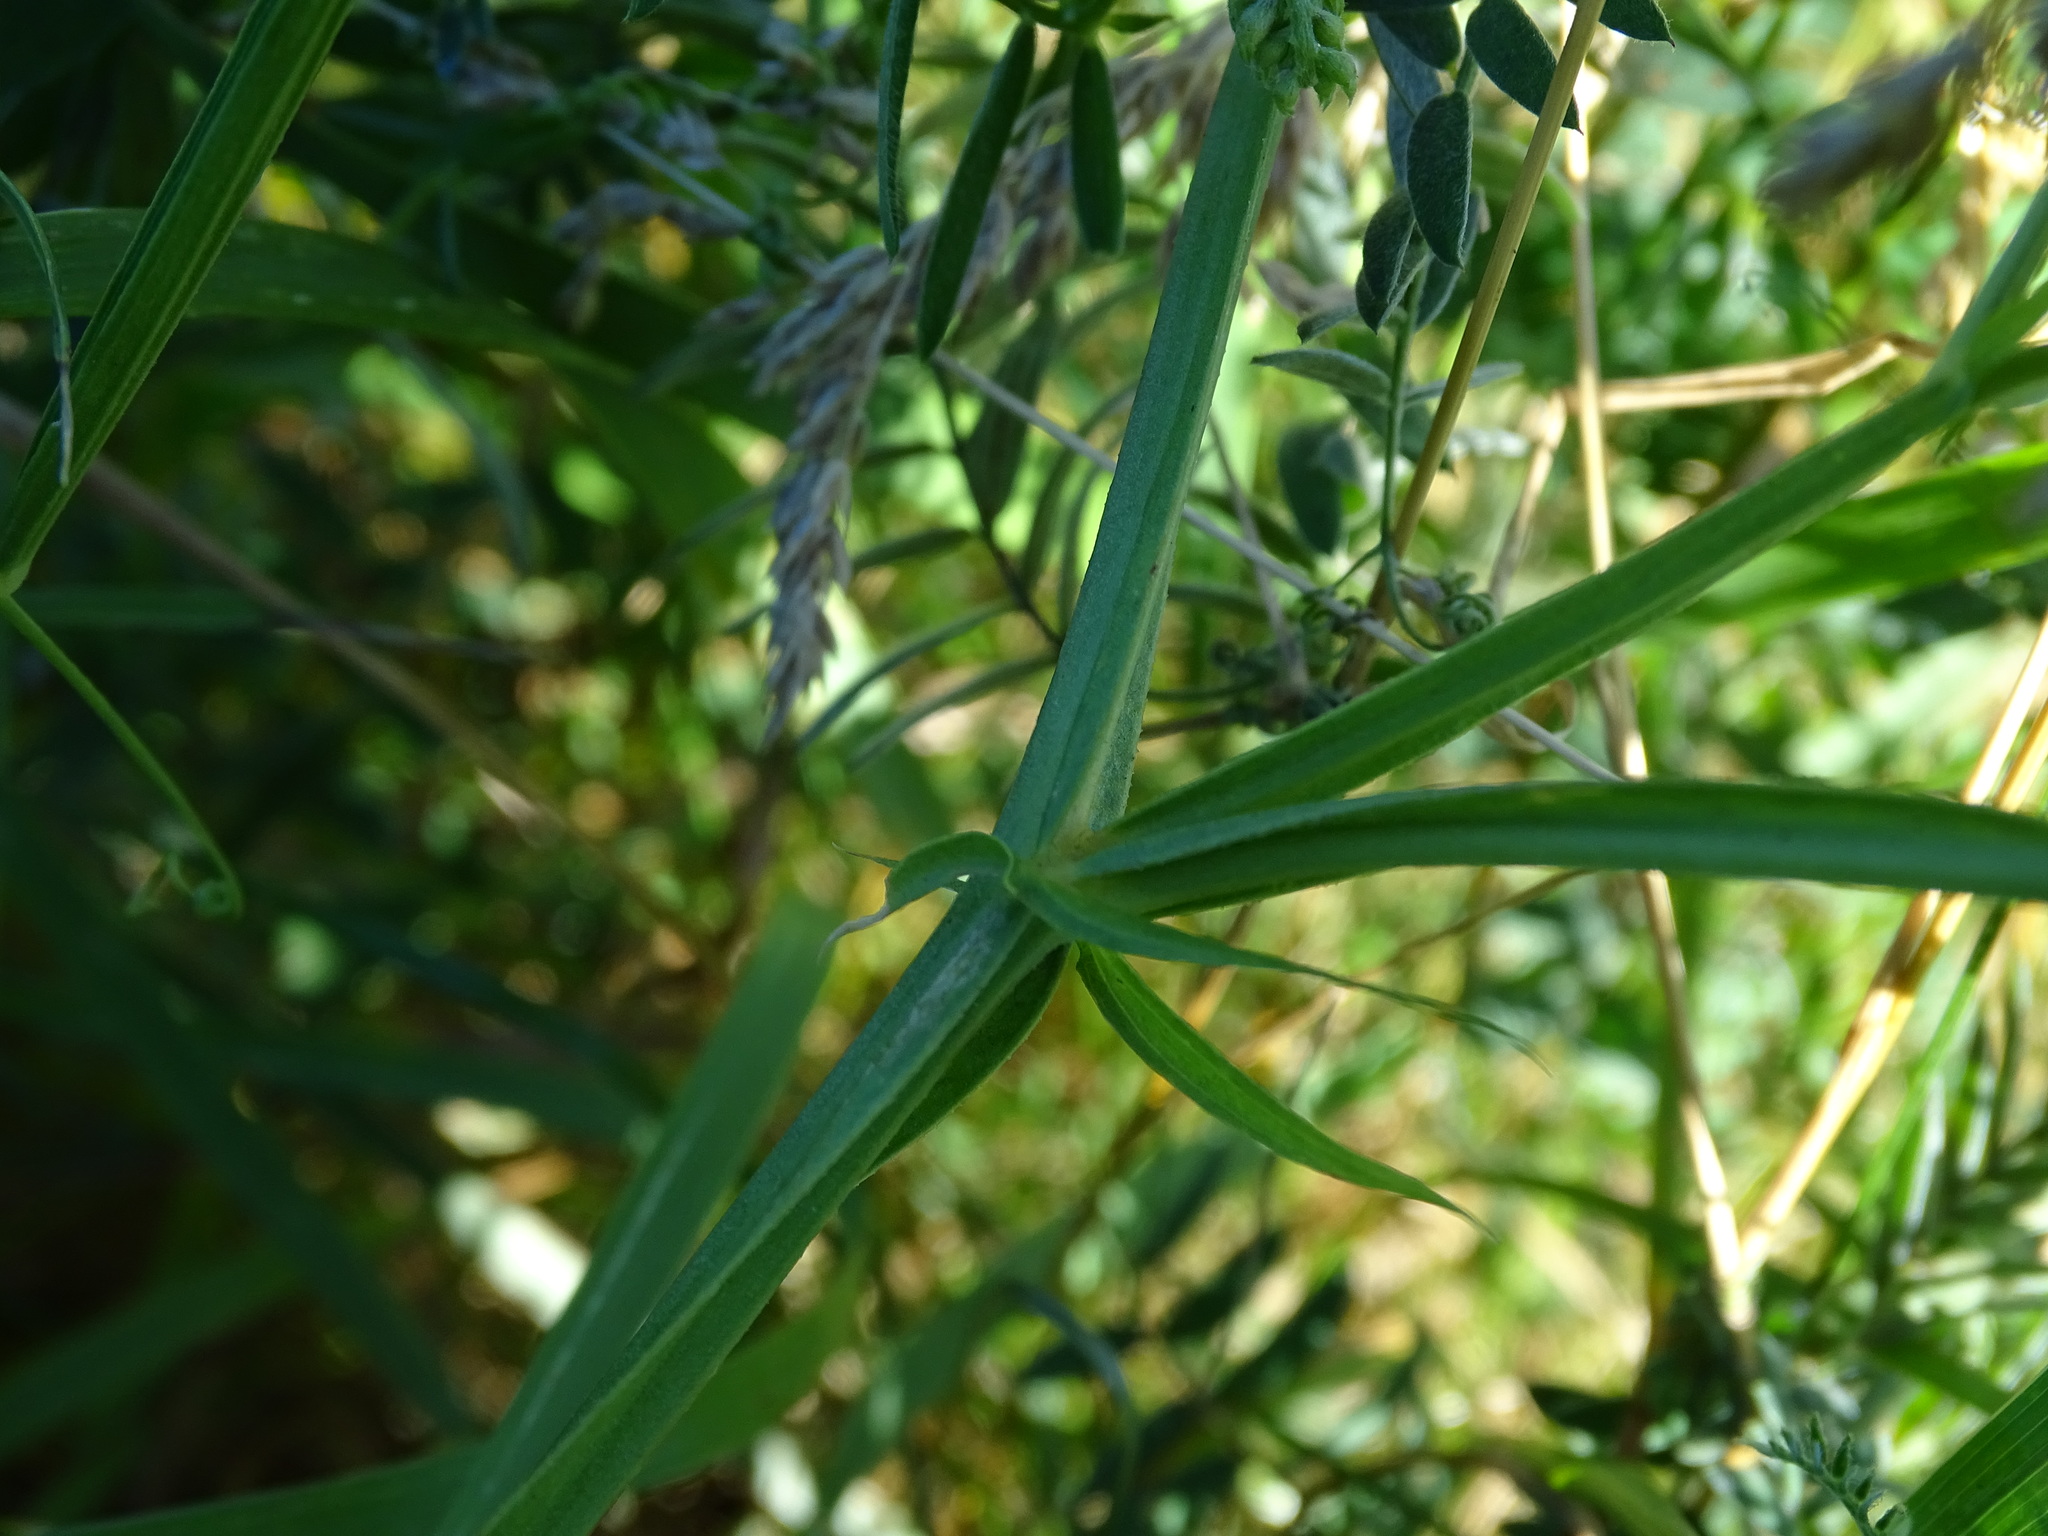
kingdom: Plantae
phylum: Tracheophyta
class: Magnoliopsida
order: Fabales
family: Fabaceae
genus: Lathyrus
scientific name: Lathyrus latifolius
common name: Perennial pea
